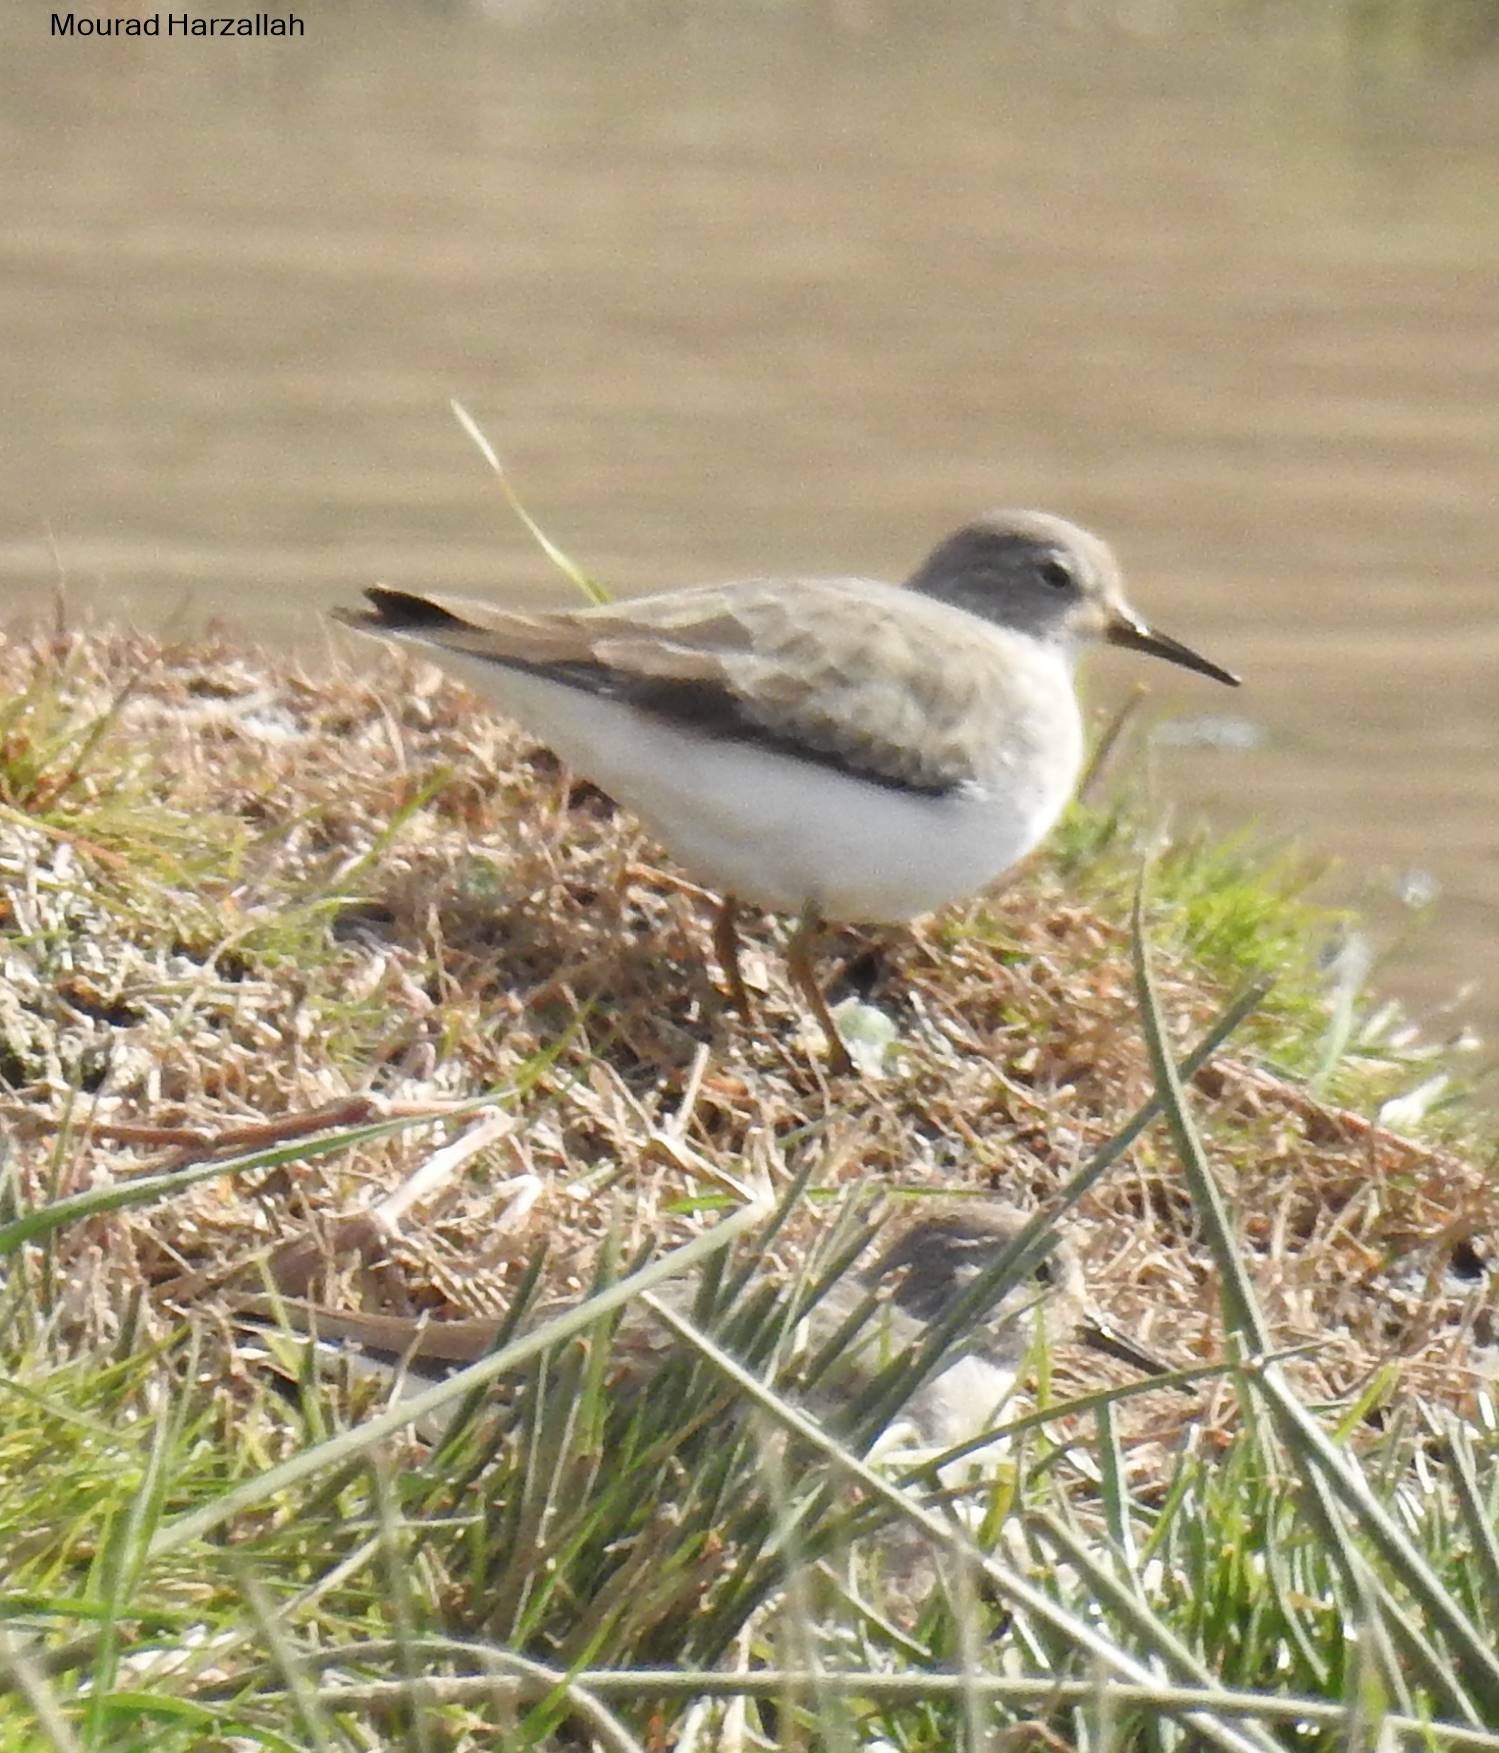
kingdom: Animalia
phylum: Chordata
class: Aves
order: Charadriiformes
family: Scolopacidae
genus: Calidris
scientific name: Calidris temminckii
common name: Temminck's stint
